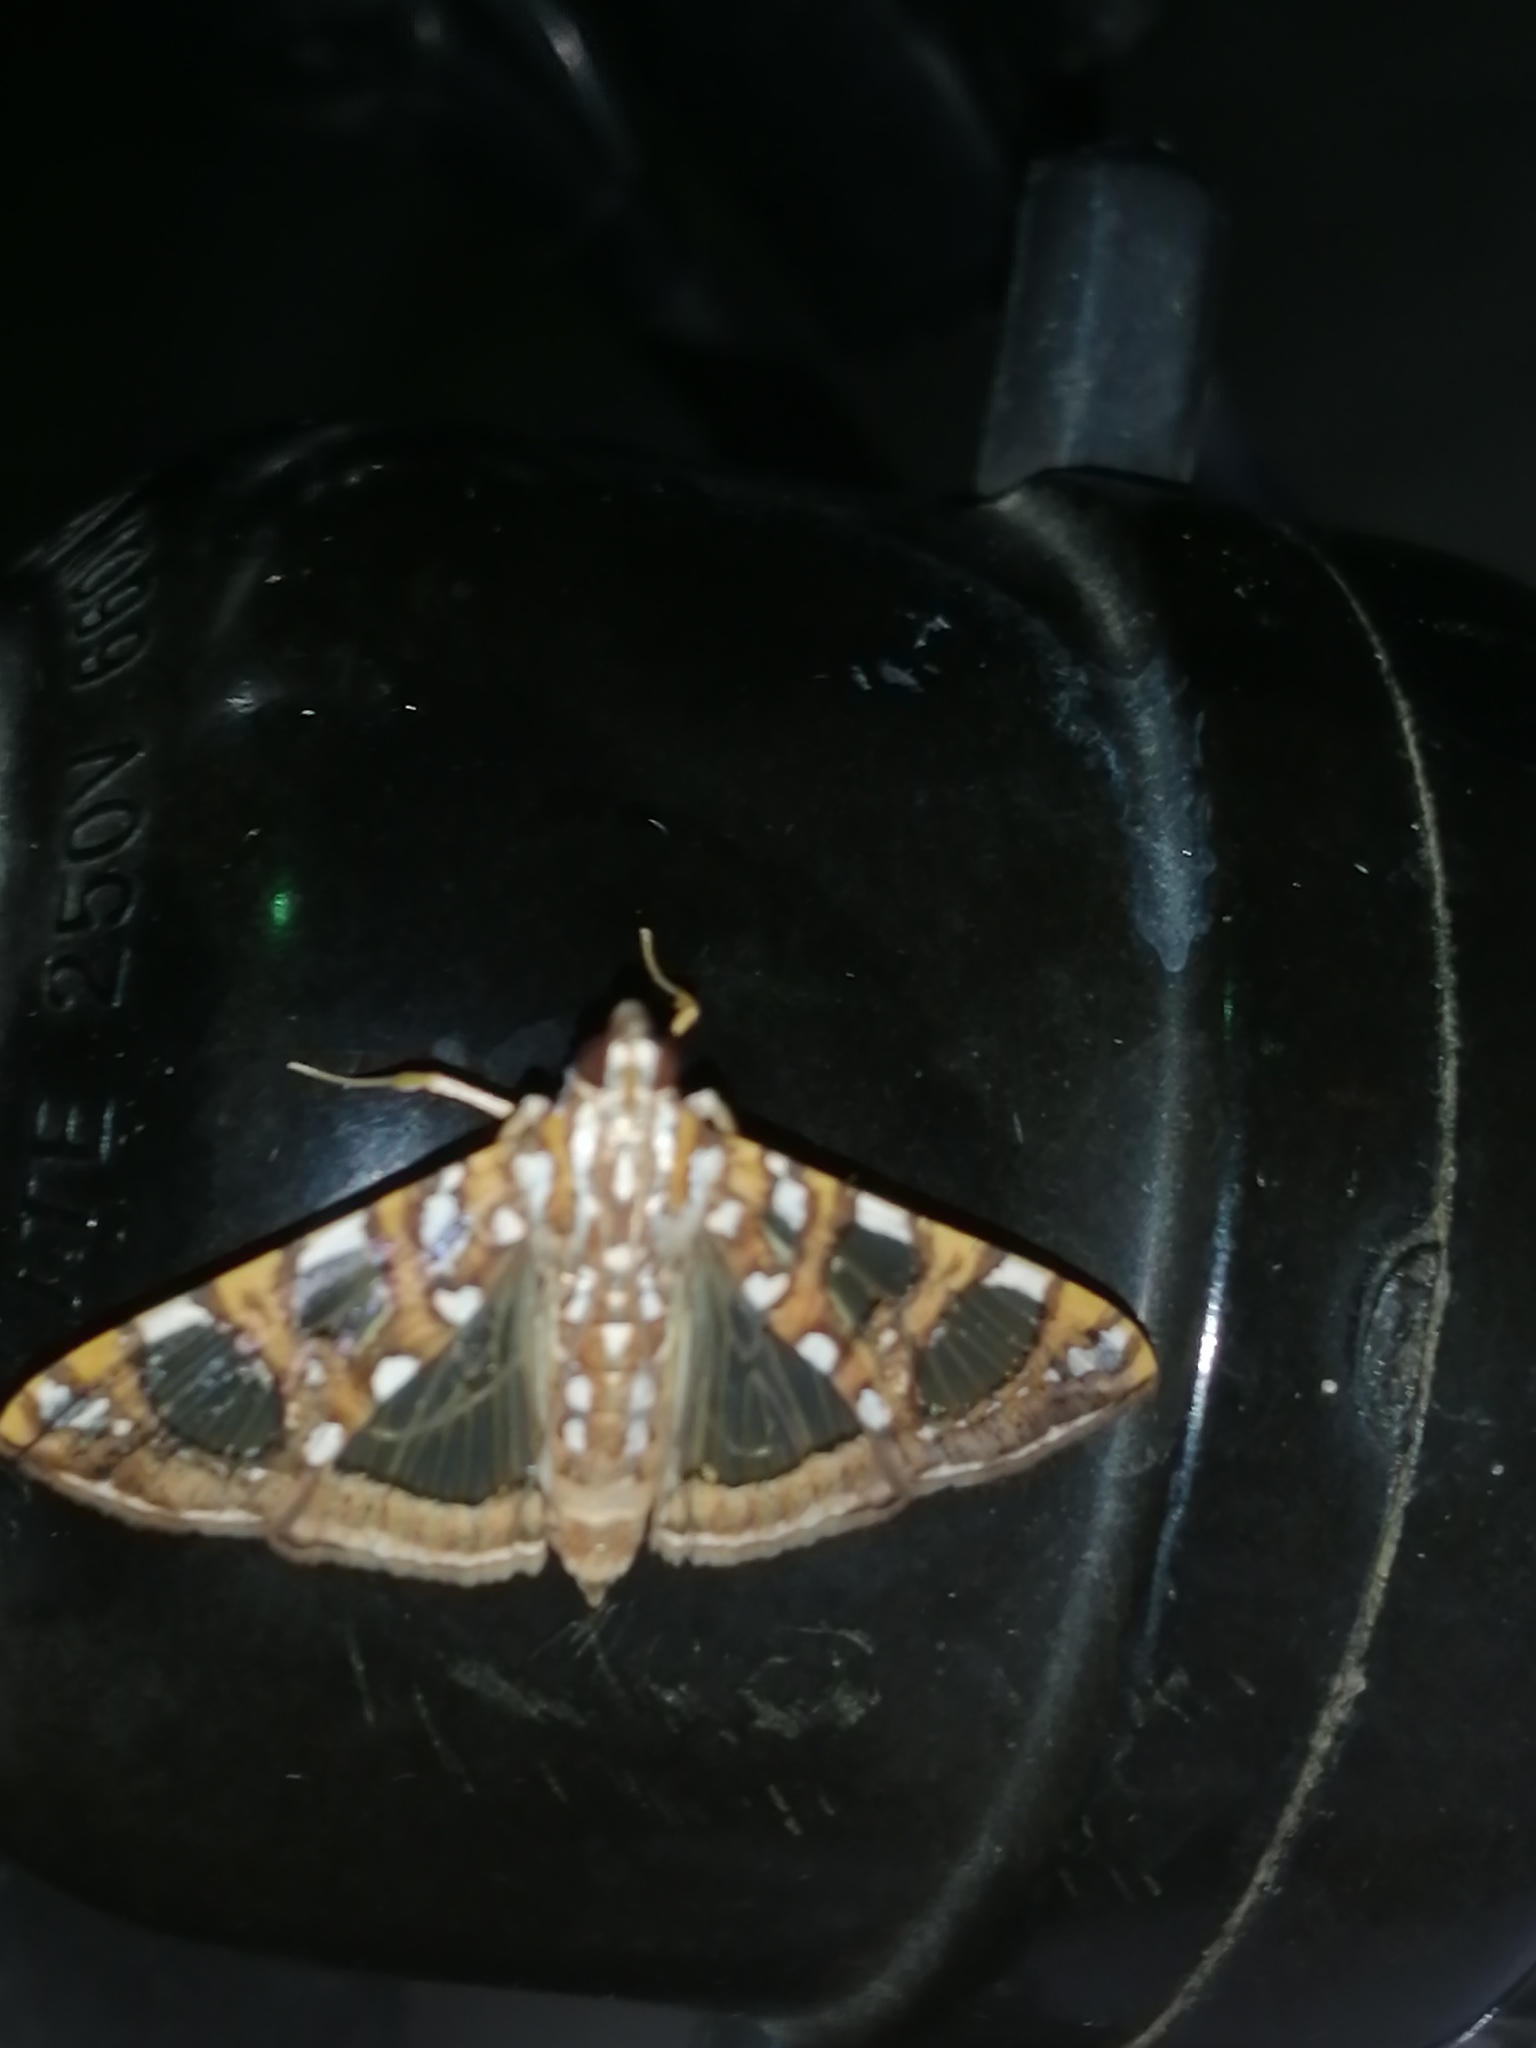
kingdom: Animalia
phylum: Arthropoda
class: Insecta
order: Lepidoptera
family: Crambidae
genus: Glyphodes
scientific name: Glyphodes sibillalis
